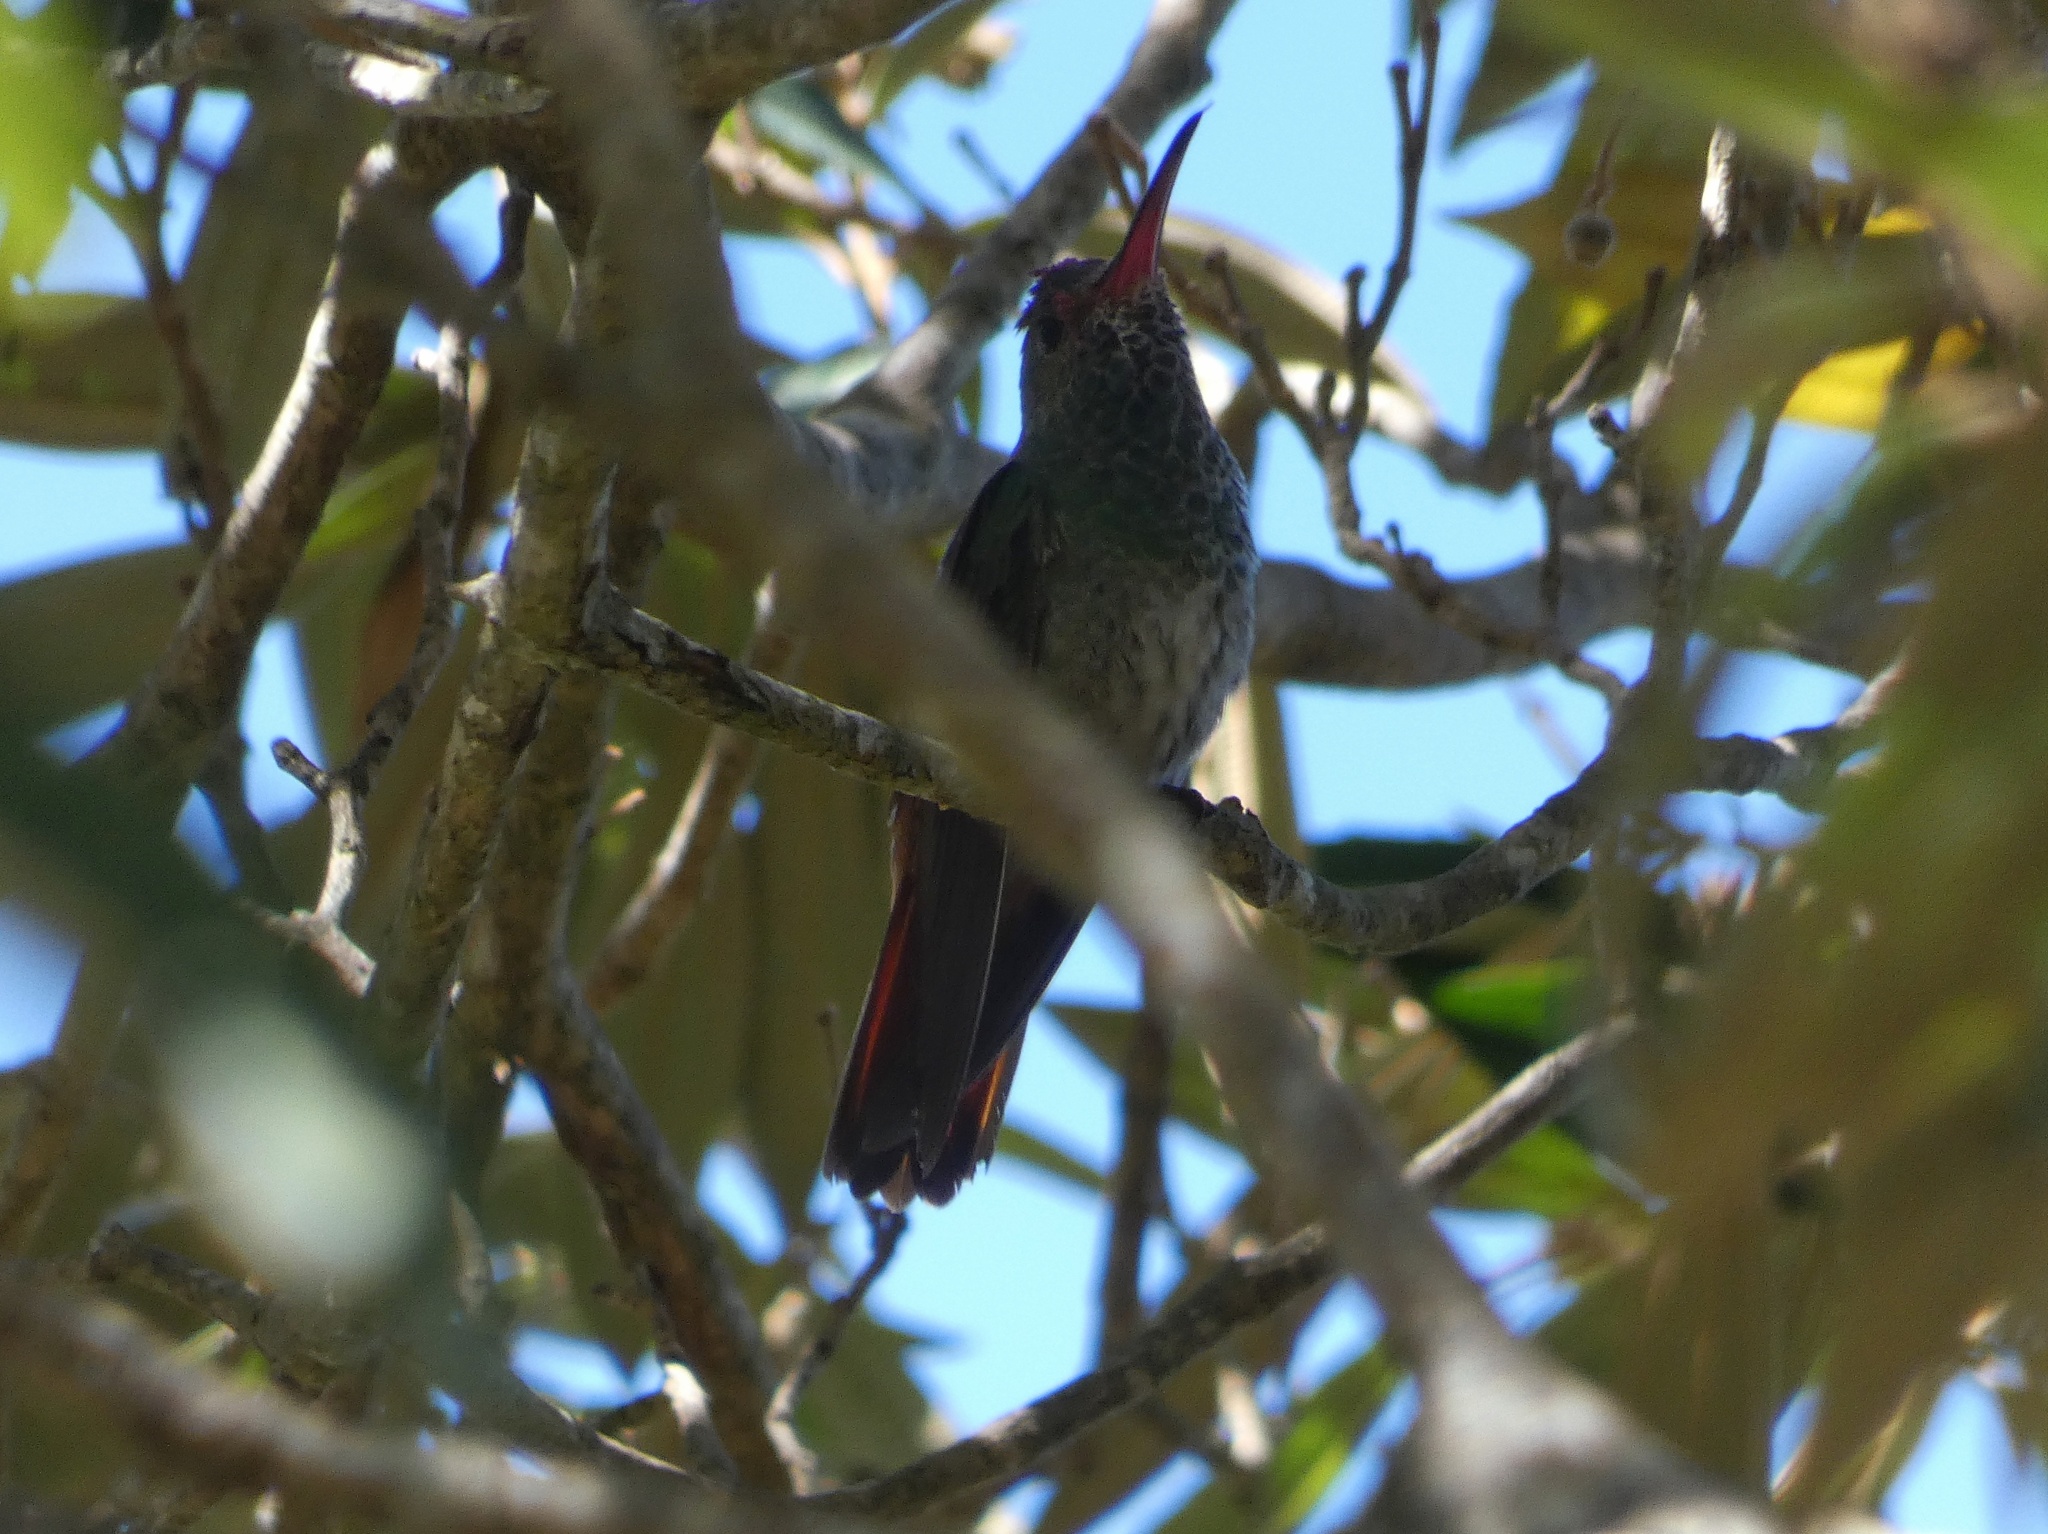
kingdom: Animalia
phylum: Chordata
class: Aves
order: Apodiformes
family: Trochilidae
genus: Amazilia
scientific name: Amazilia tzacatl
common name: Rufous-tailed hummingbird
